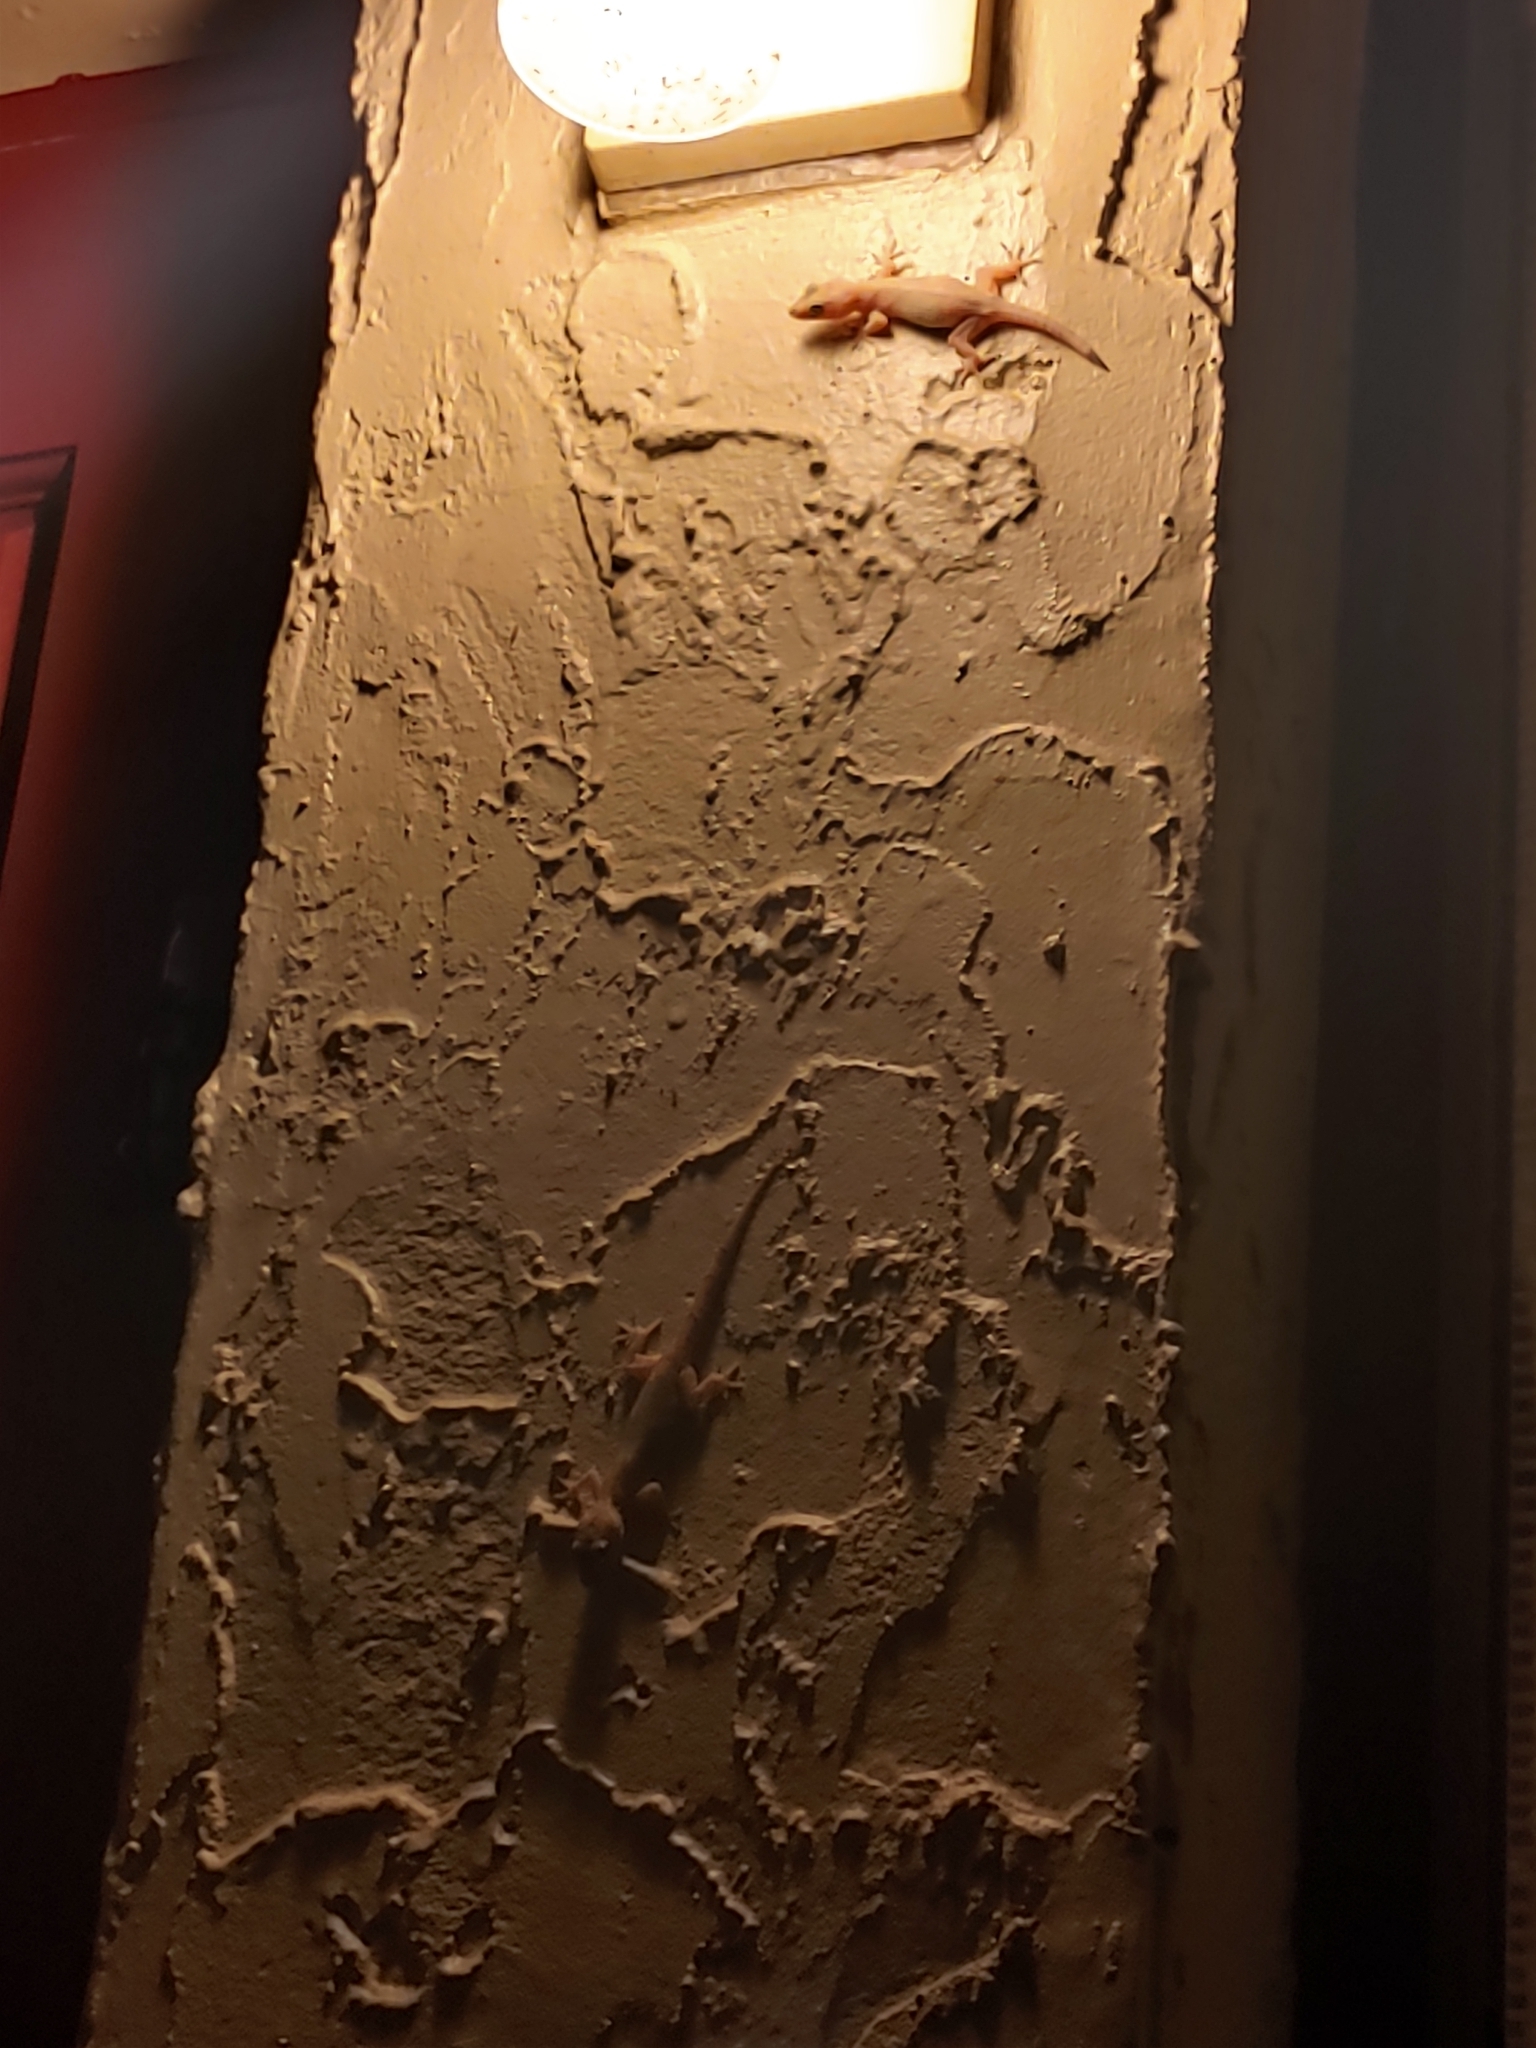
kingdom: Animalia
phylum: Chordata
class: Squamata
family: Gekkonidae
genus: Hemidactylus
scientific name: Hemidactylus mabouia
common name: House gecko
